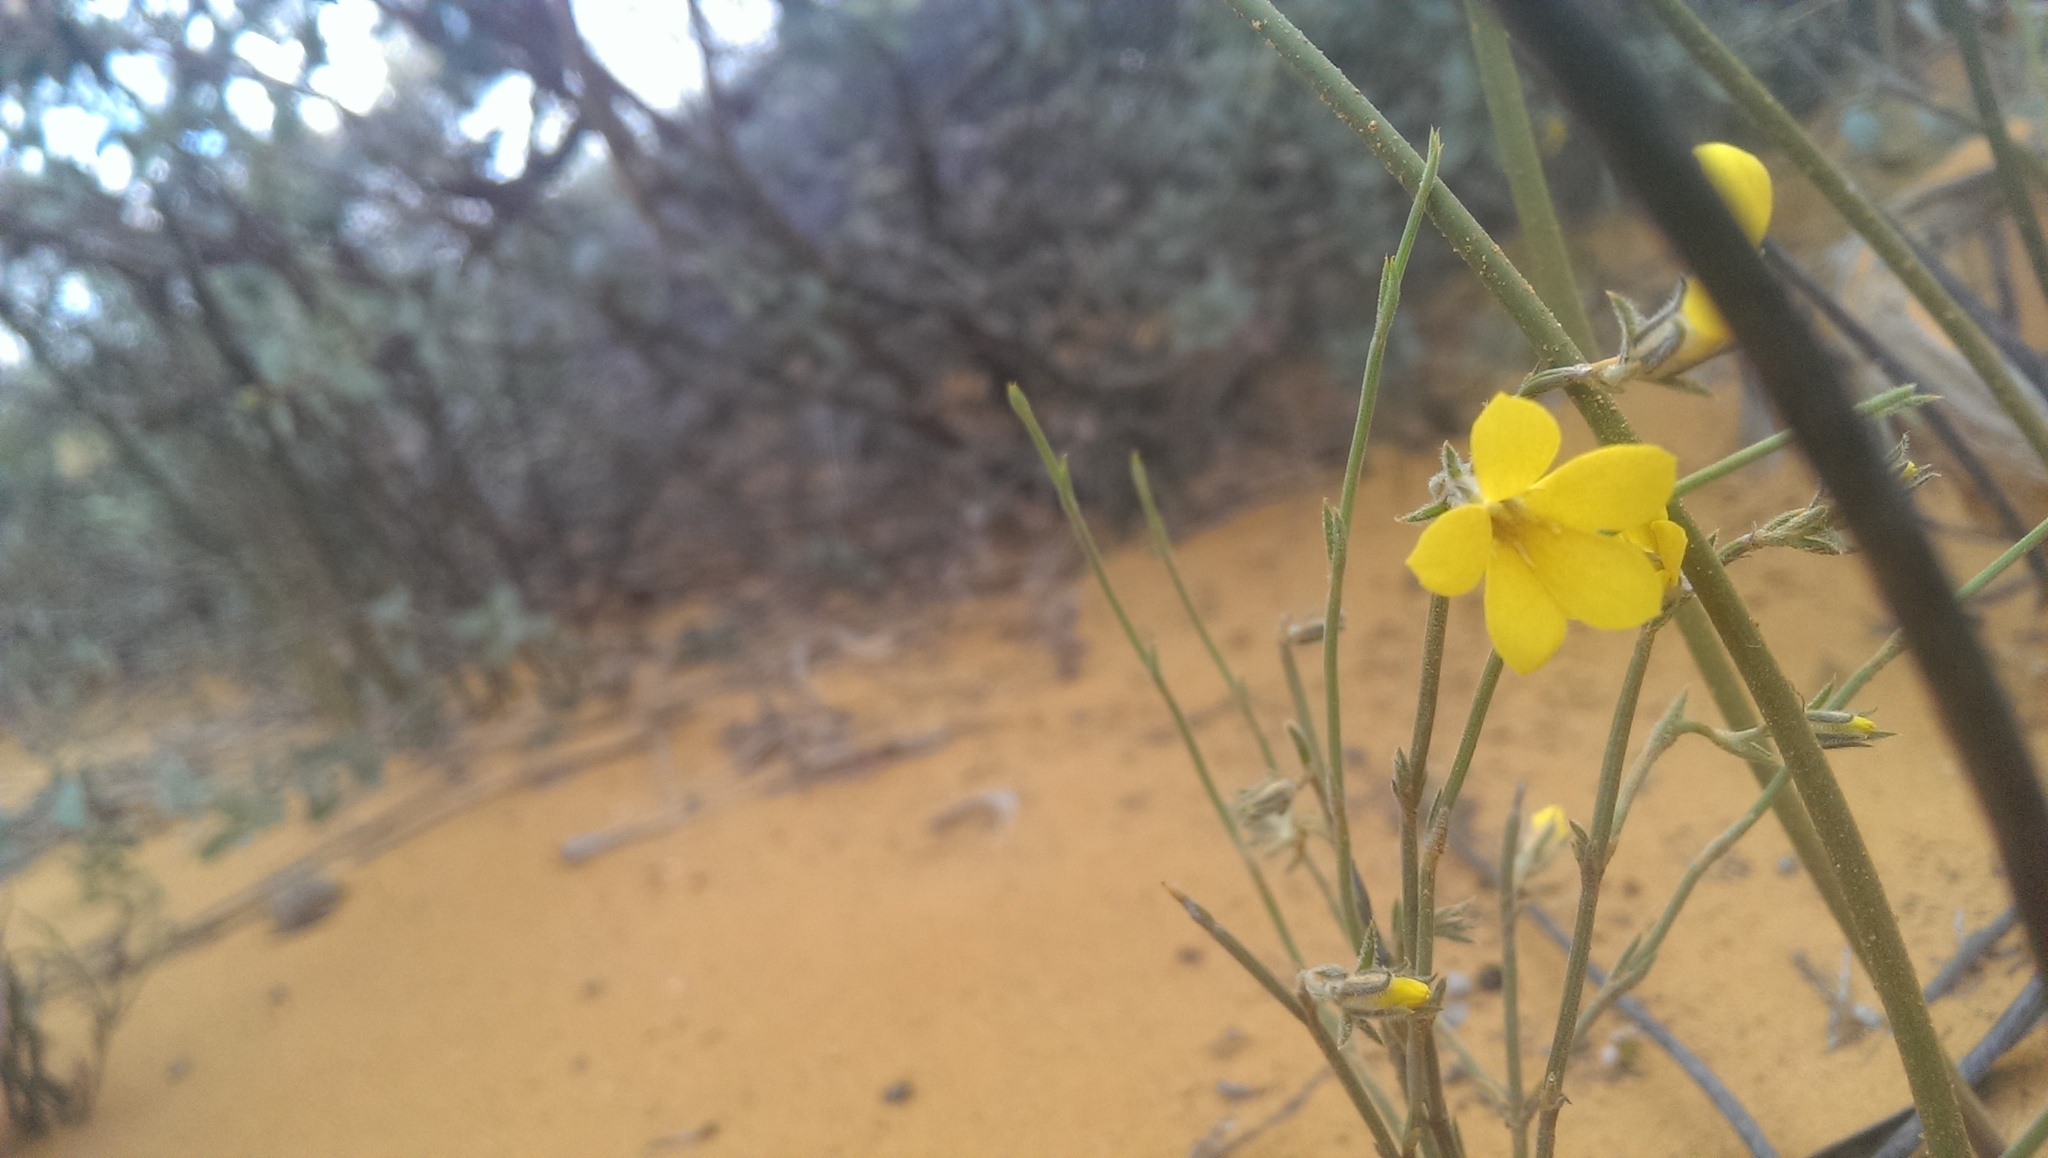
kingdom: Plantae
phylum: Tracheophyta
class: Magnoliopsida
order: Gentianales
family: Loganiaceae
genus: Orianthera
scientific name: Orianthera flaviflora
